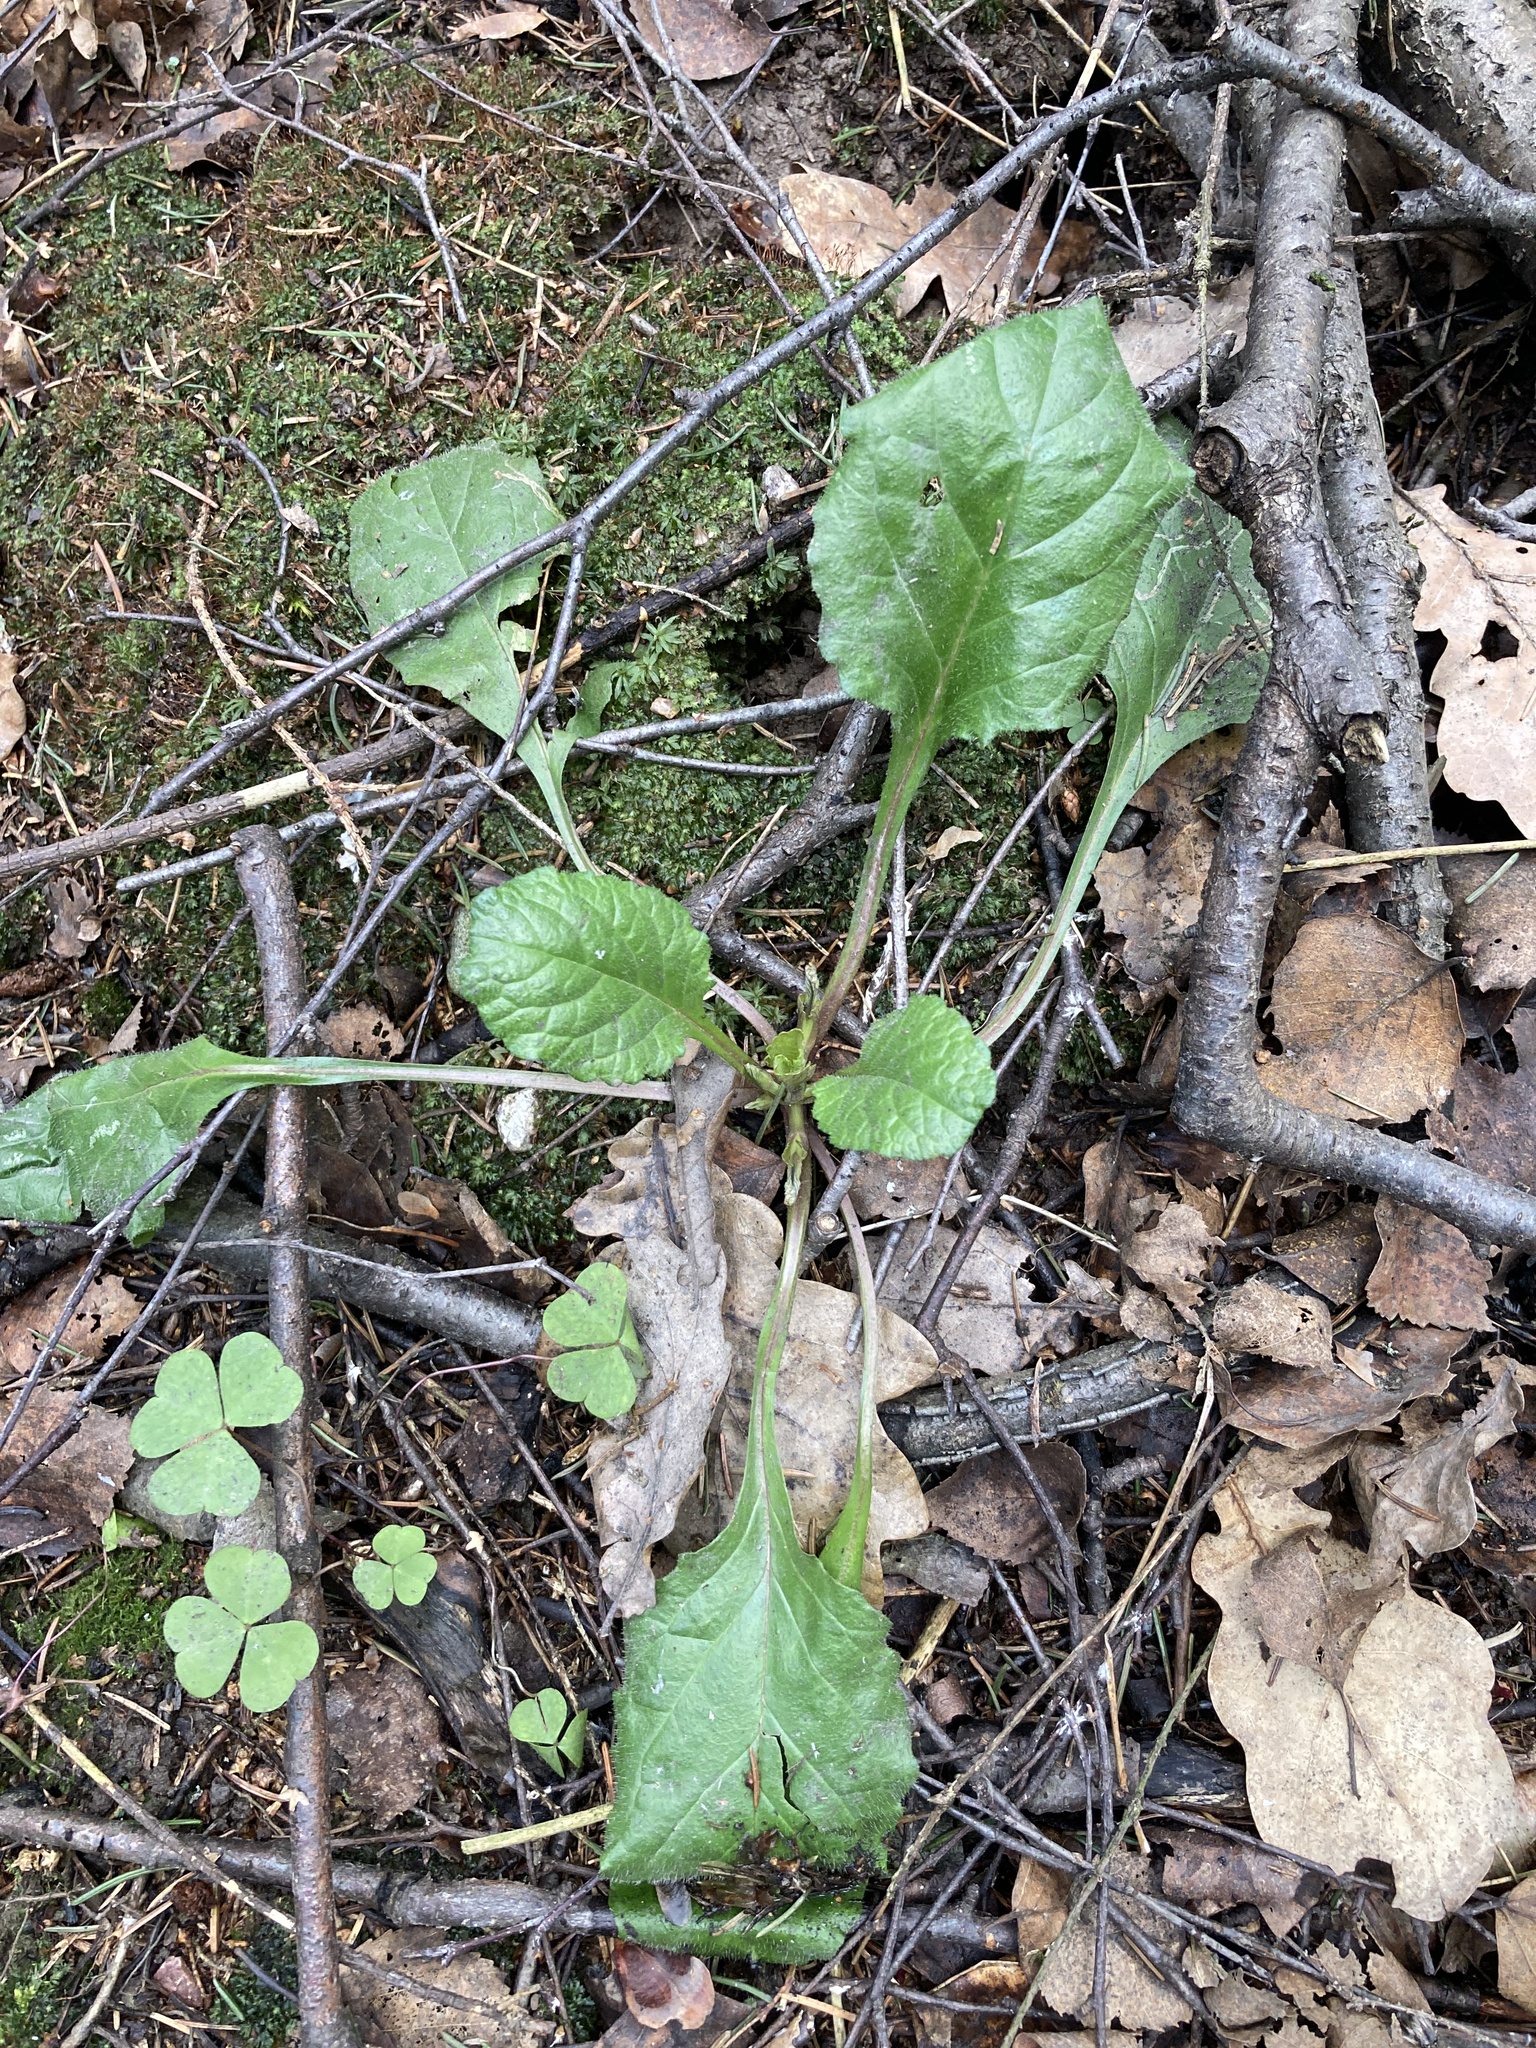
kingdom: Plantae
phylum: Tracheophyta
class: Magnoliopsida
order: Lamiales
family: Lamiaceae
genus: Ajuga
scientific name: Ajuga reptans
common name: Bugle
